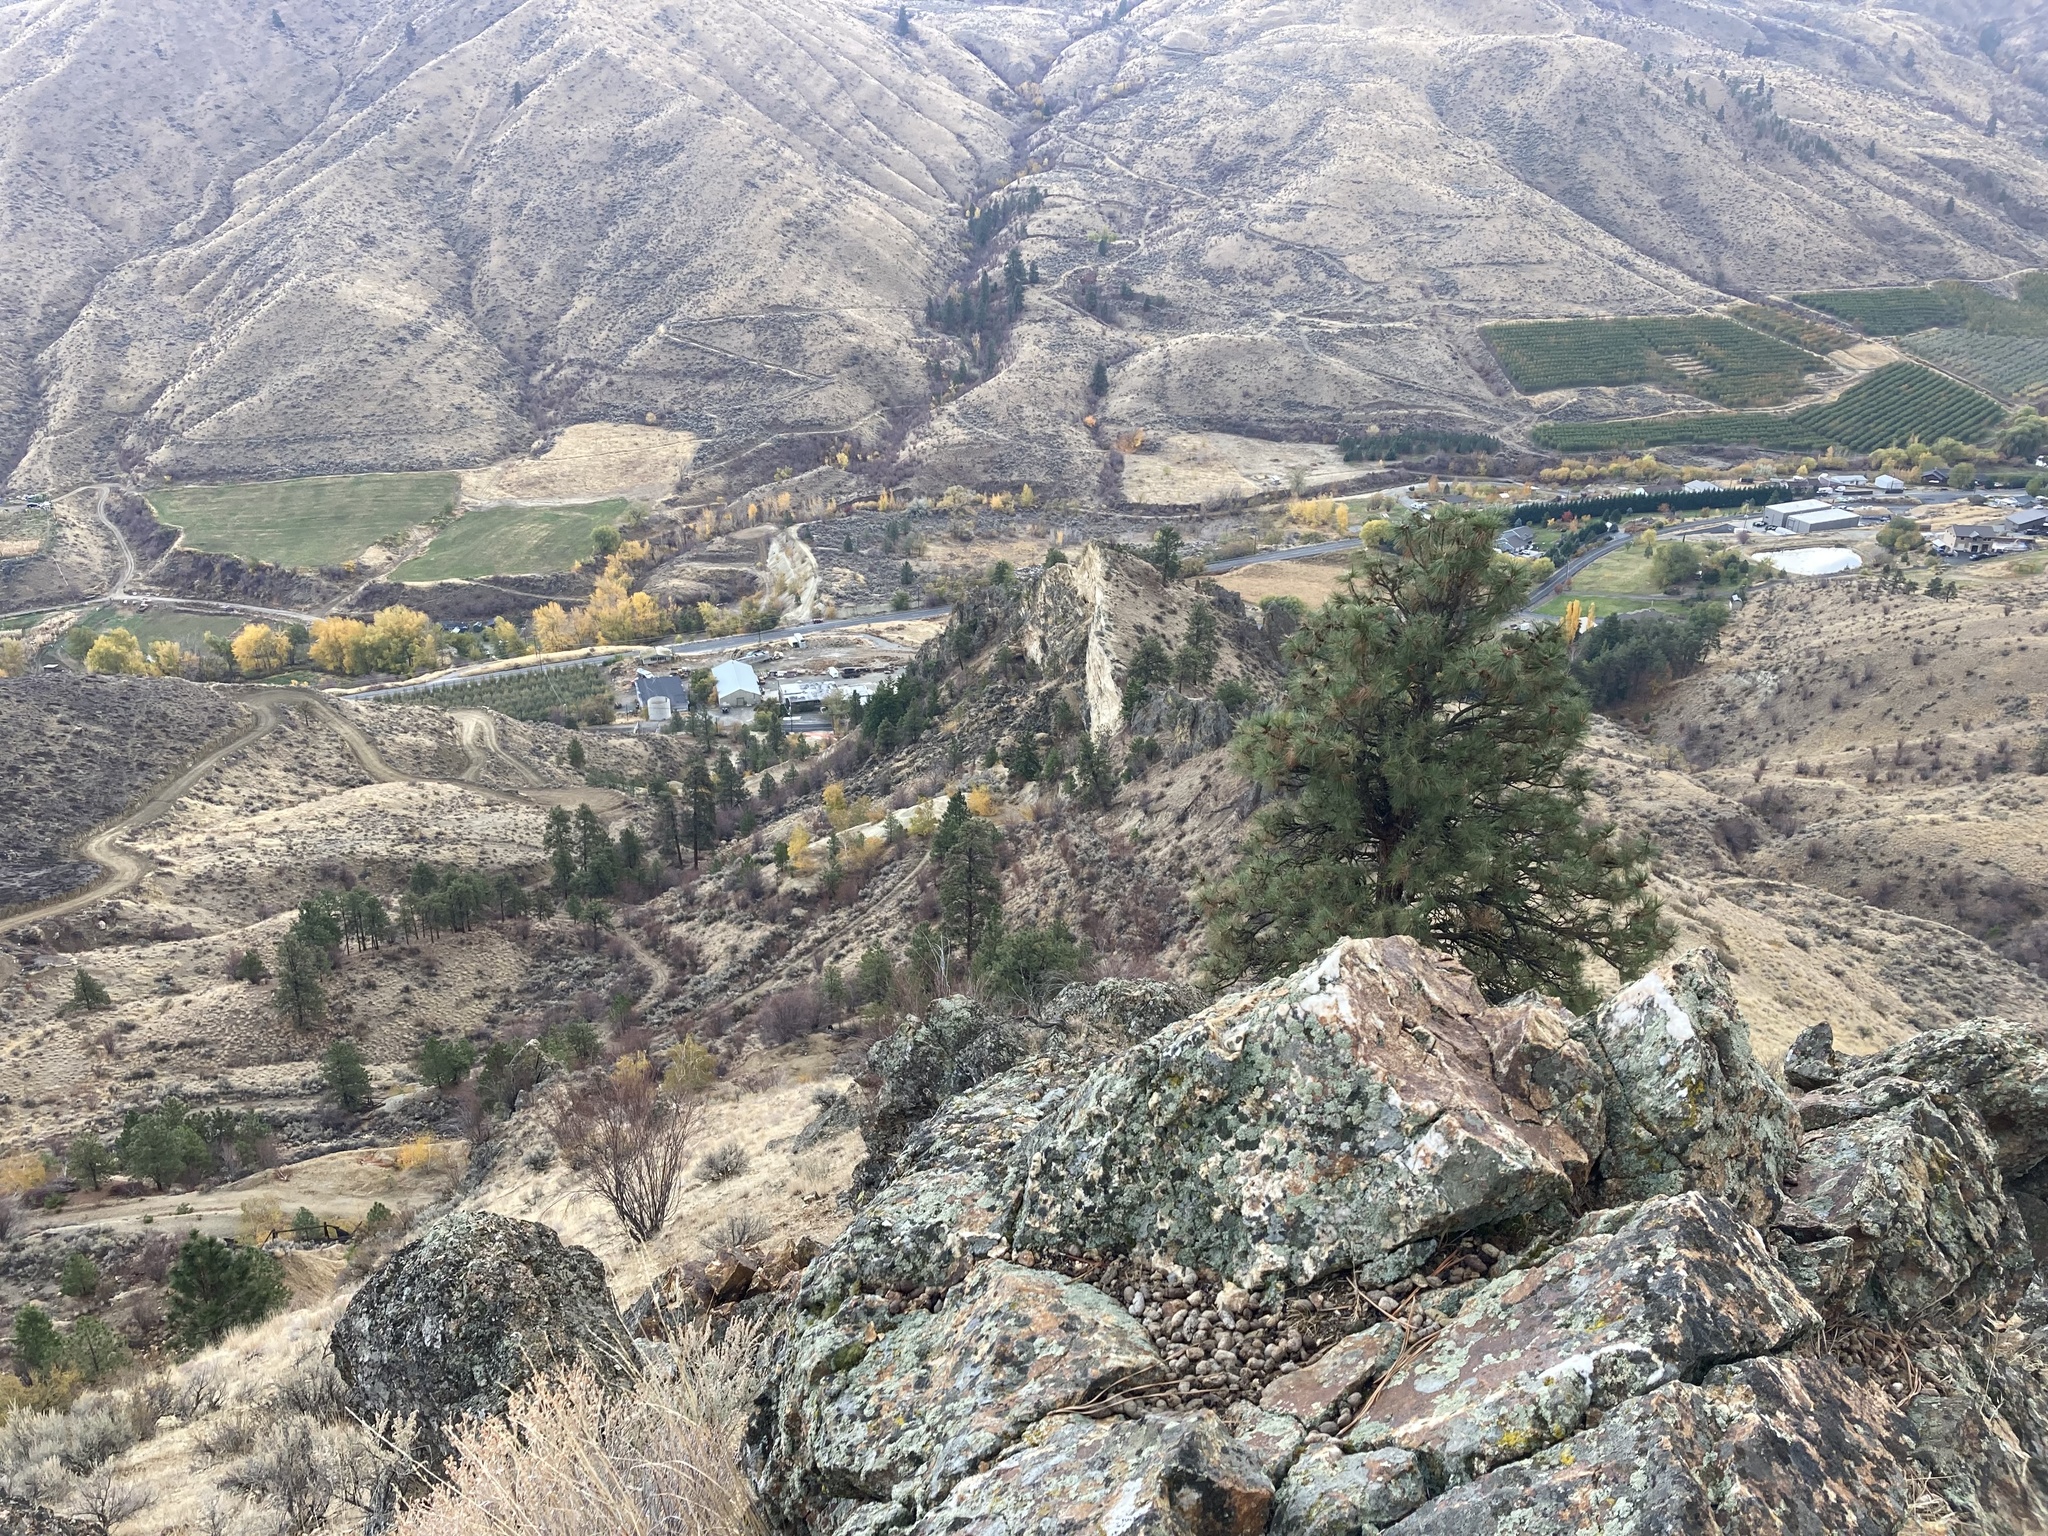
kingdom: Plantae
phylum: Tracheophyta
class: Pinopsida
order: Pinales
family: Pinaceae
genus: Pinus
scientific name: Pinus ponderosa
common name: Western yellow-pine
